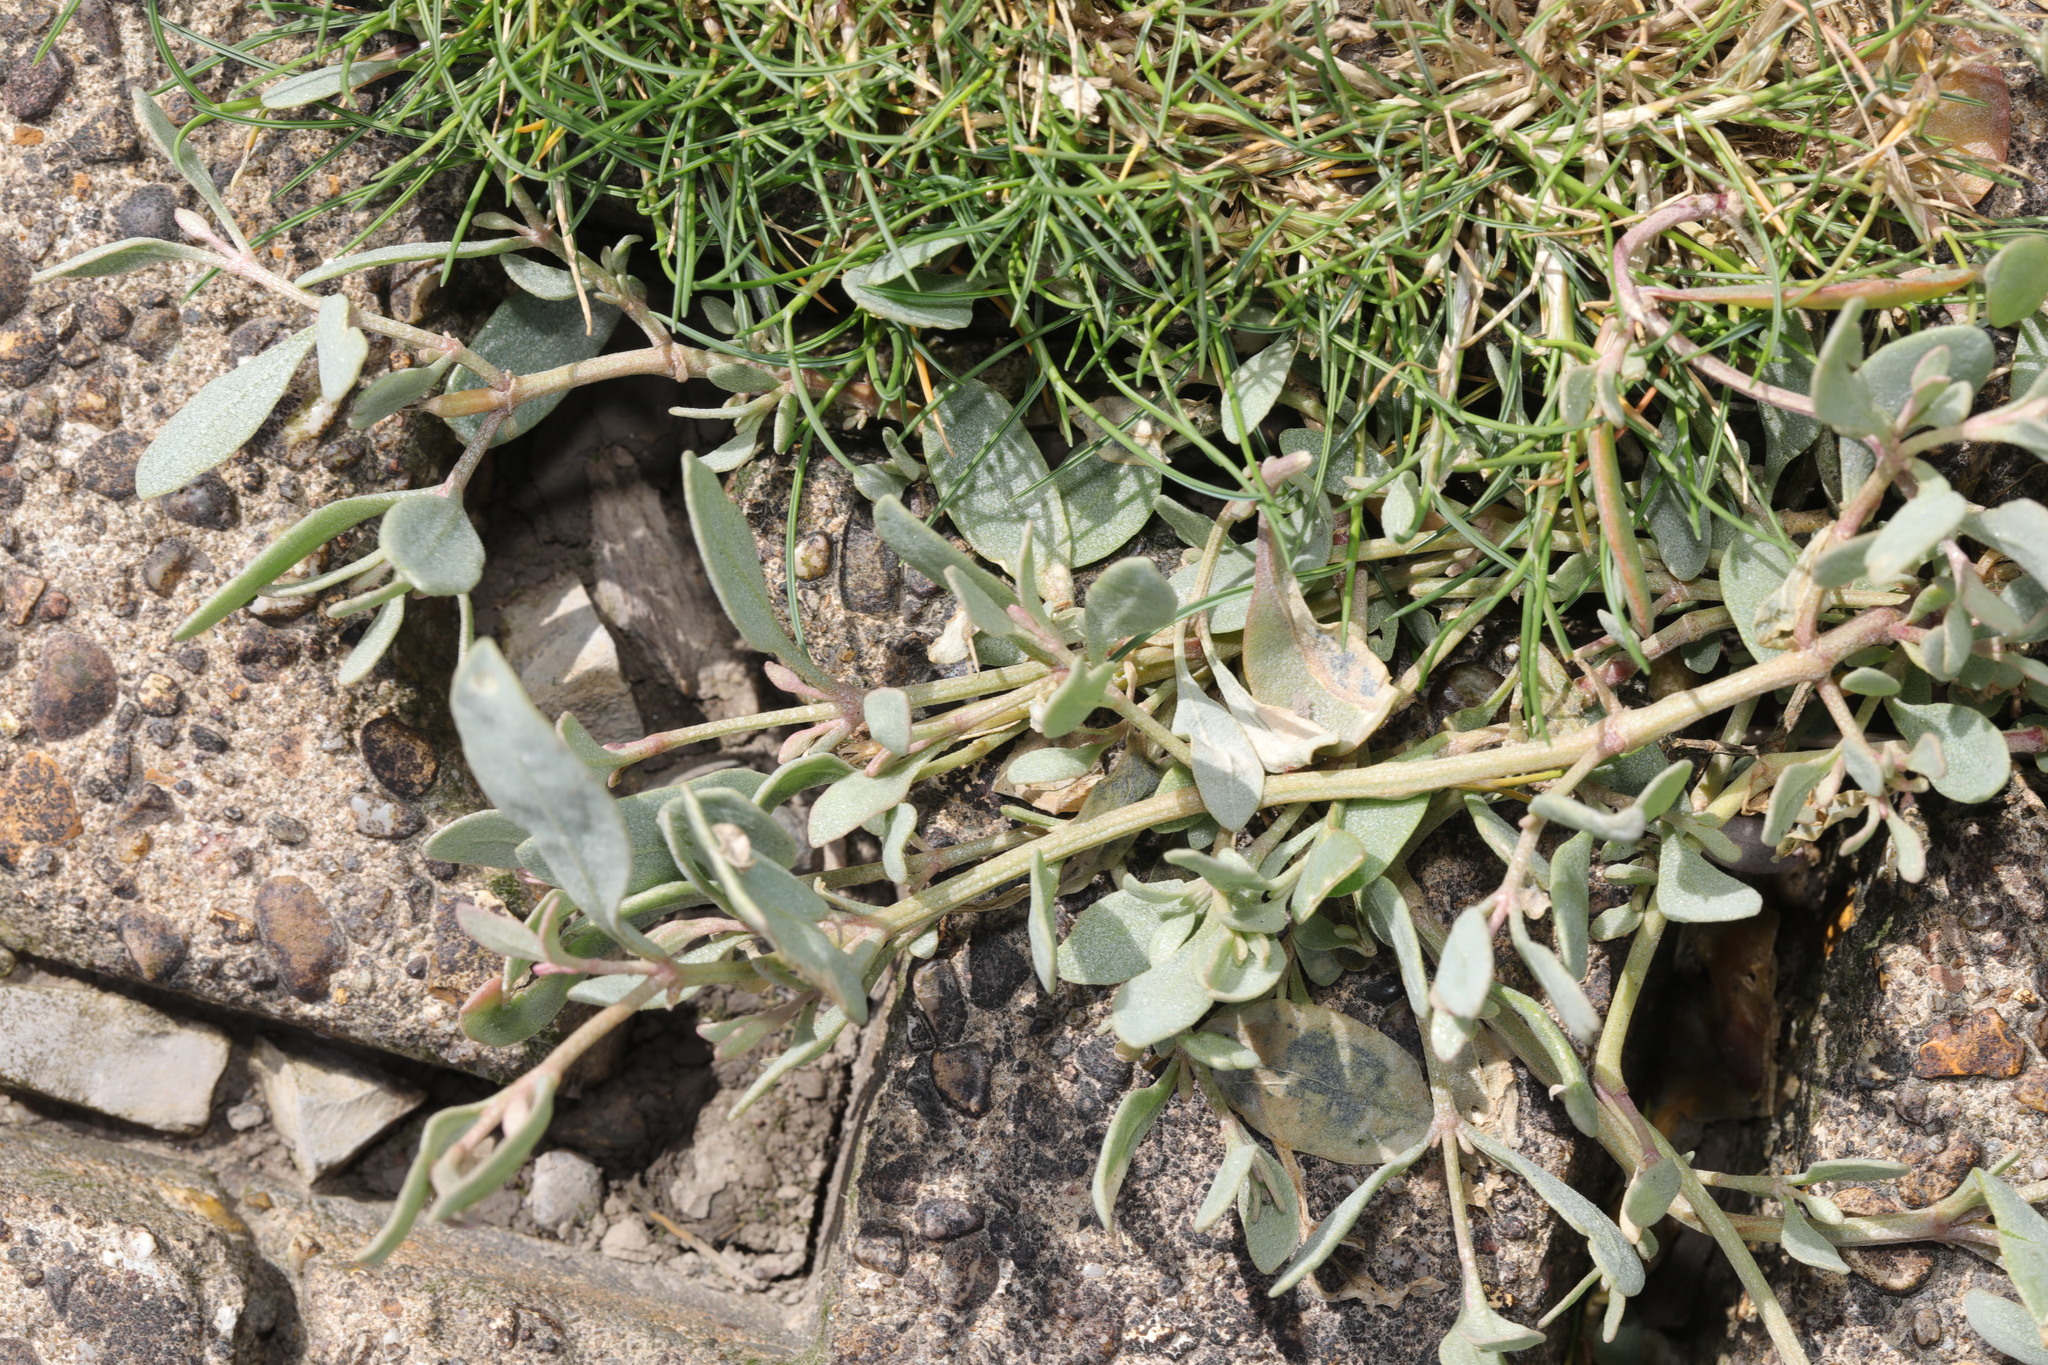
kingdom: Plantae
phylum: Tracheophyta
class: Magnoliopsida
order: Caryophyllales
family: Amaranthaceae
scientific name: Amaranthaceae
